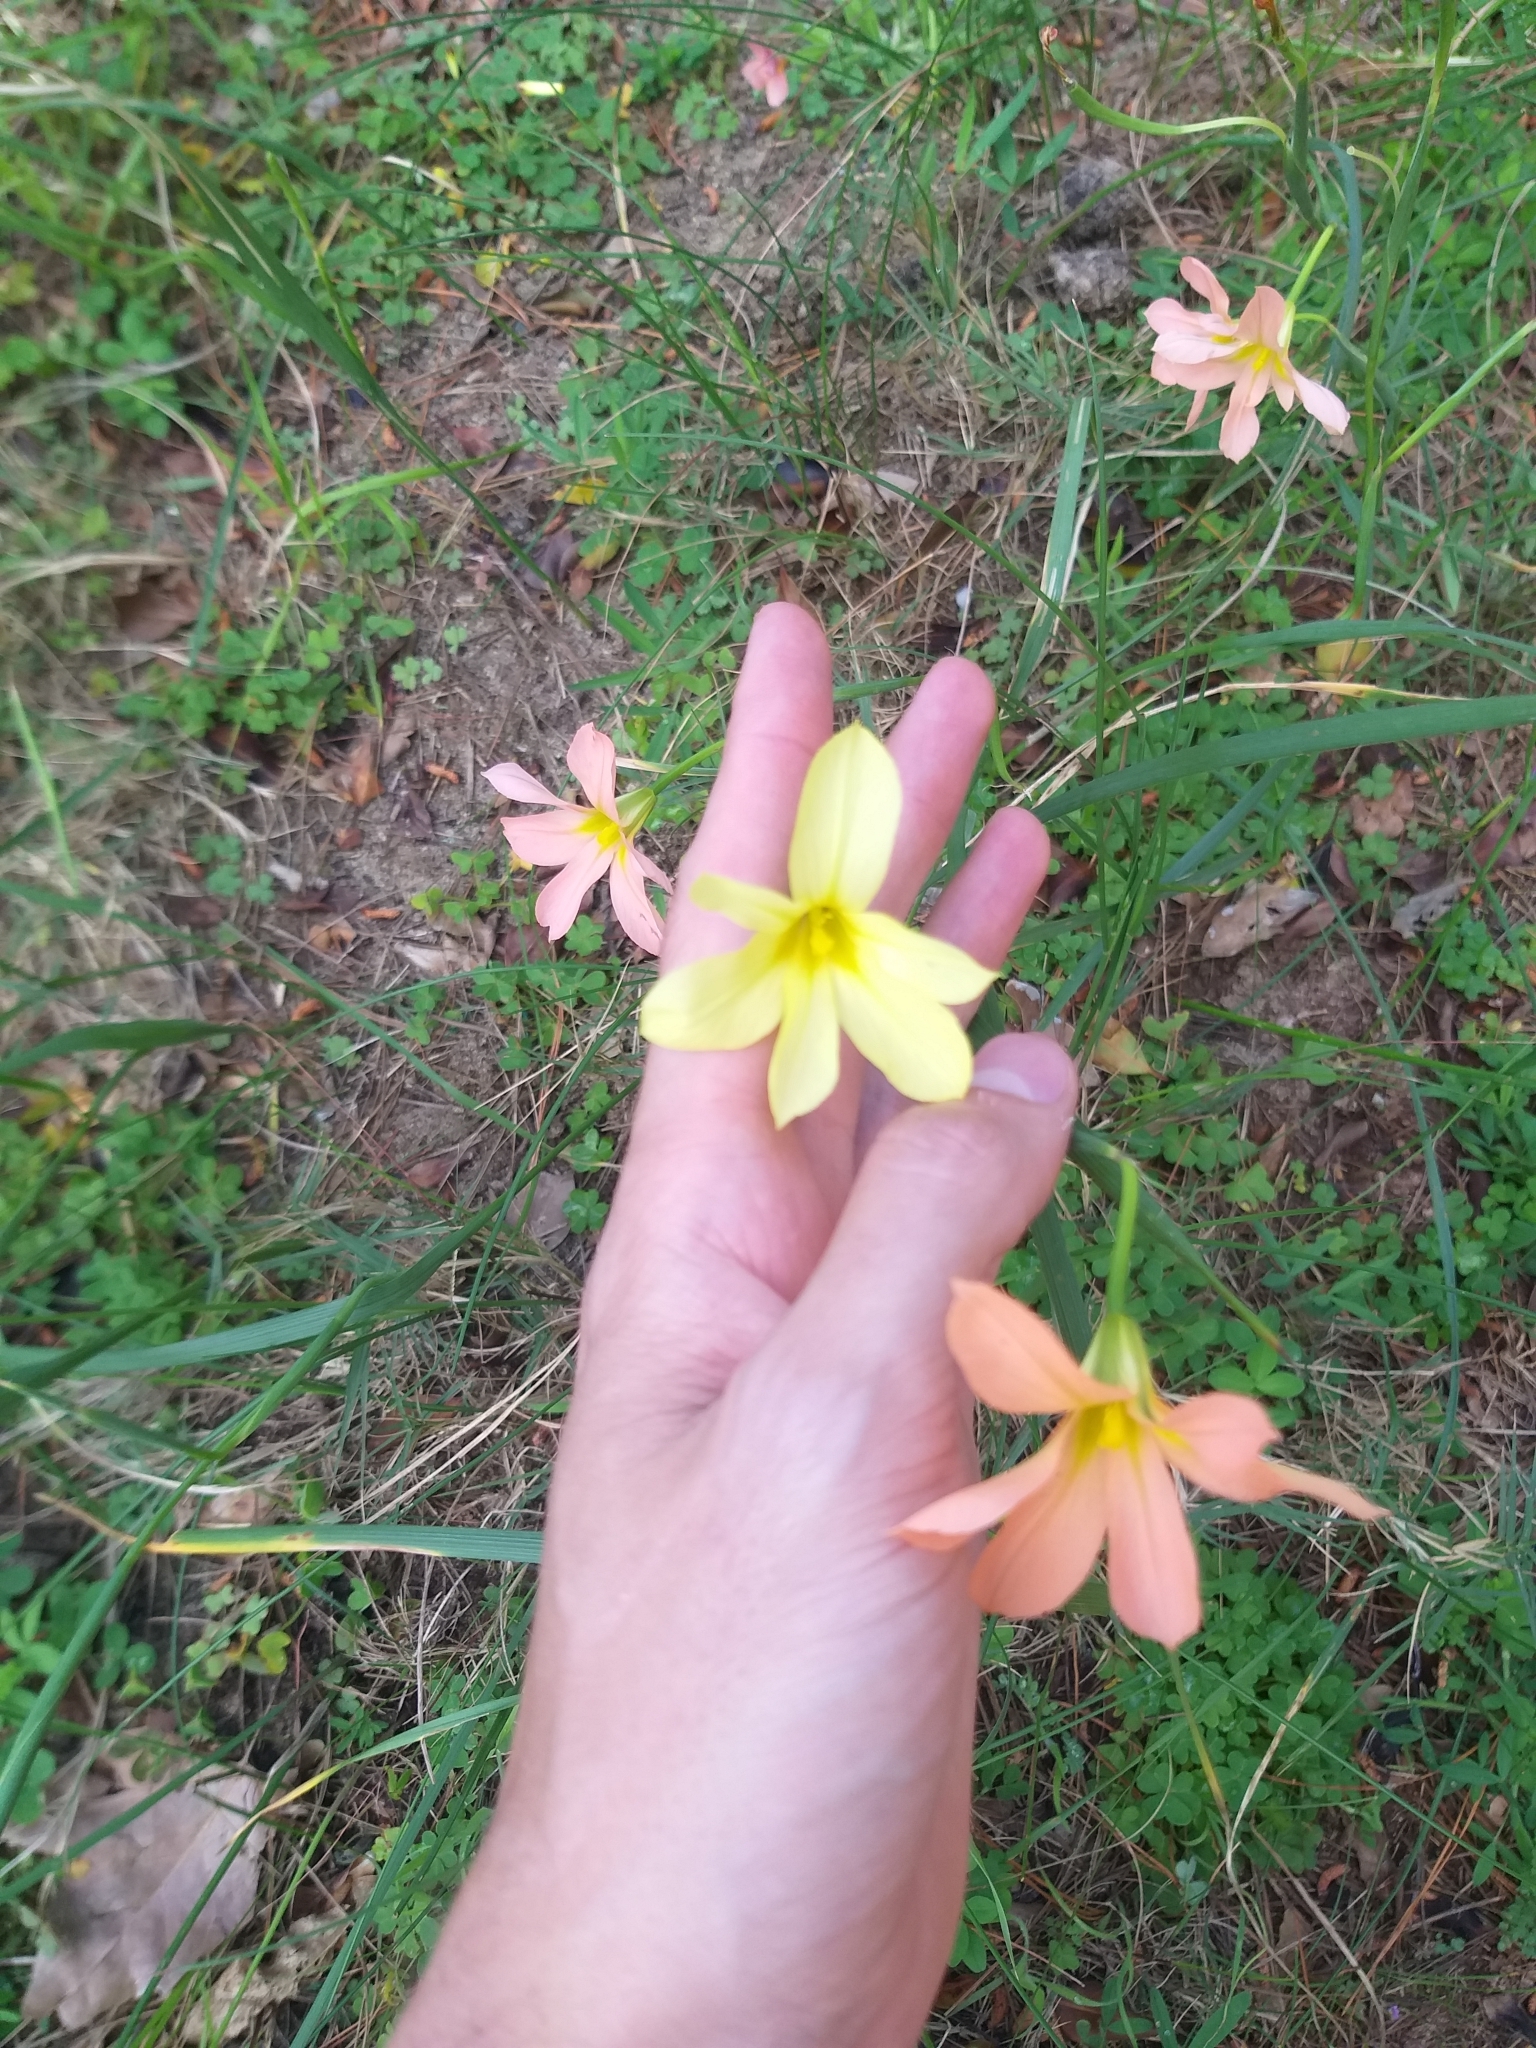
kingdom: Plantae
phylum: Tracheophyta
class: Liliopsida
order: Asparagales
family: Iridaceae
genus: Moraea
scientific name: Moraea collina
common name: Cape-tulip
